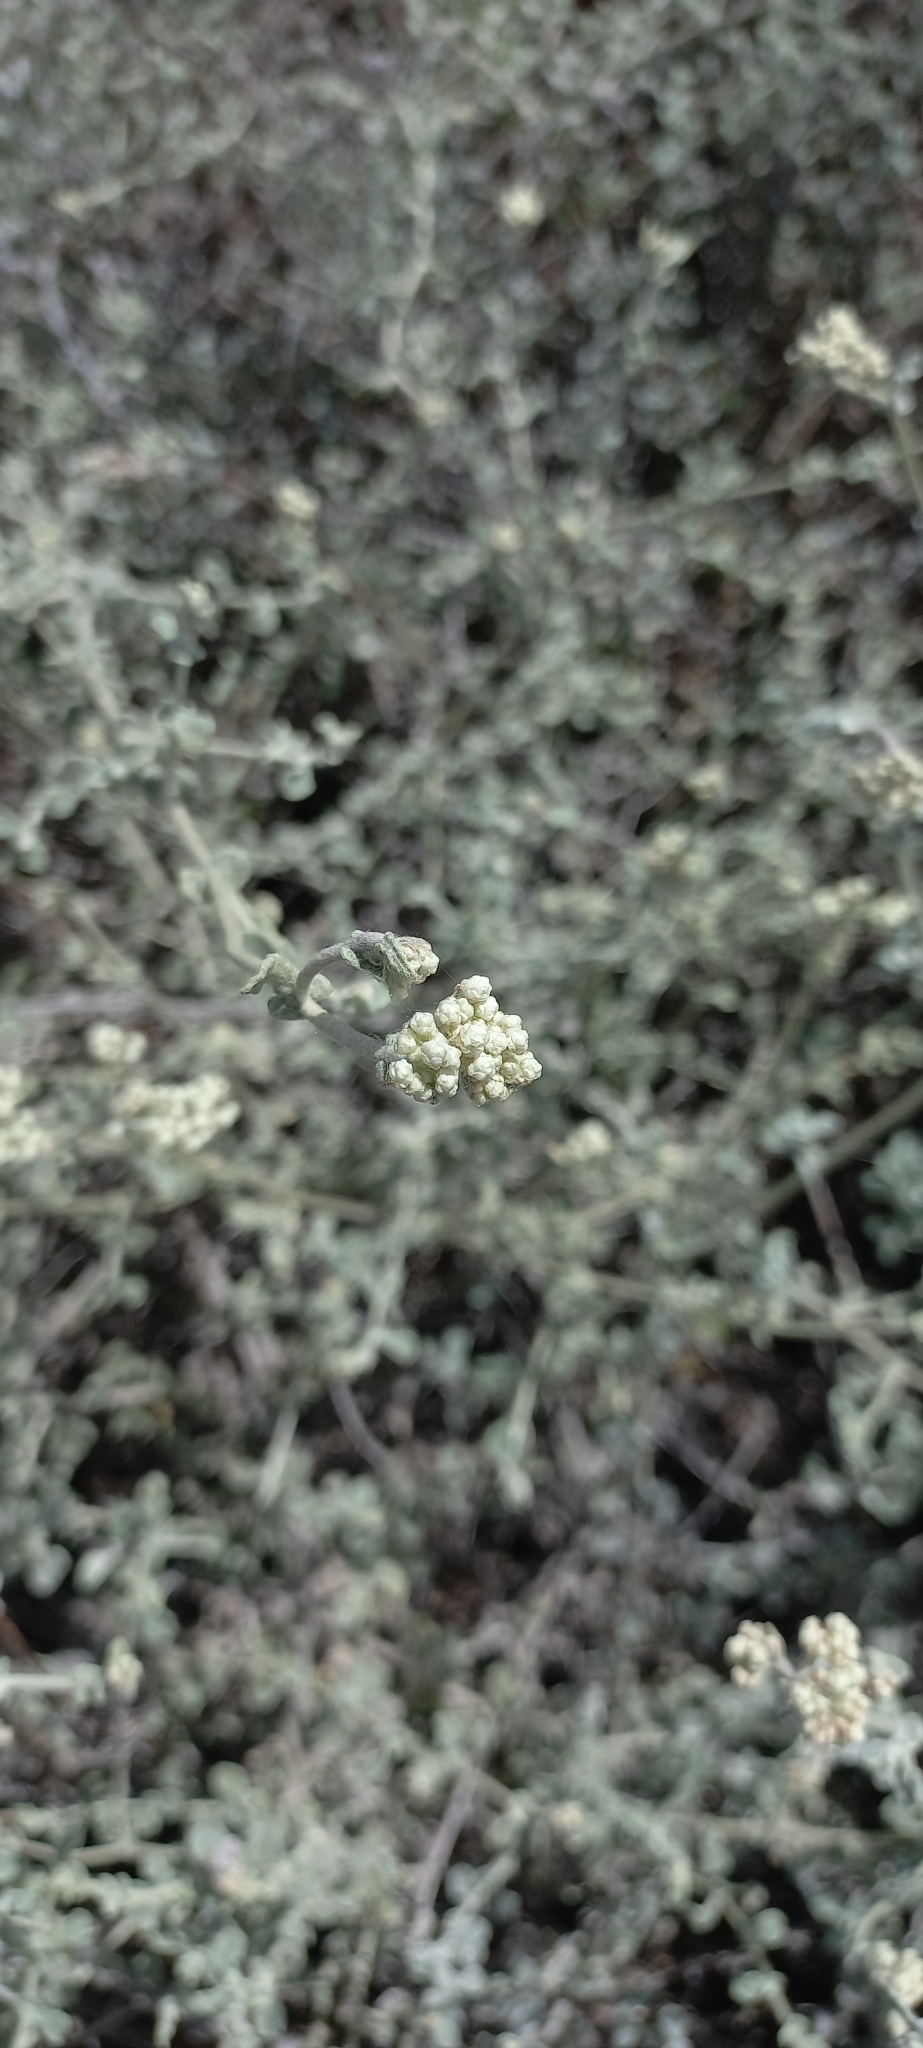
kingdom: Plantae
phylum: Tracheophyta
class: Magnoliopsida
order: Asterales
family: Asteraceae
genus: Helichrysum
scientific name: Helichrysum patulum
